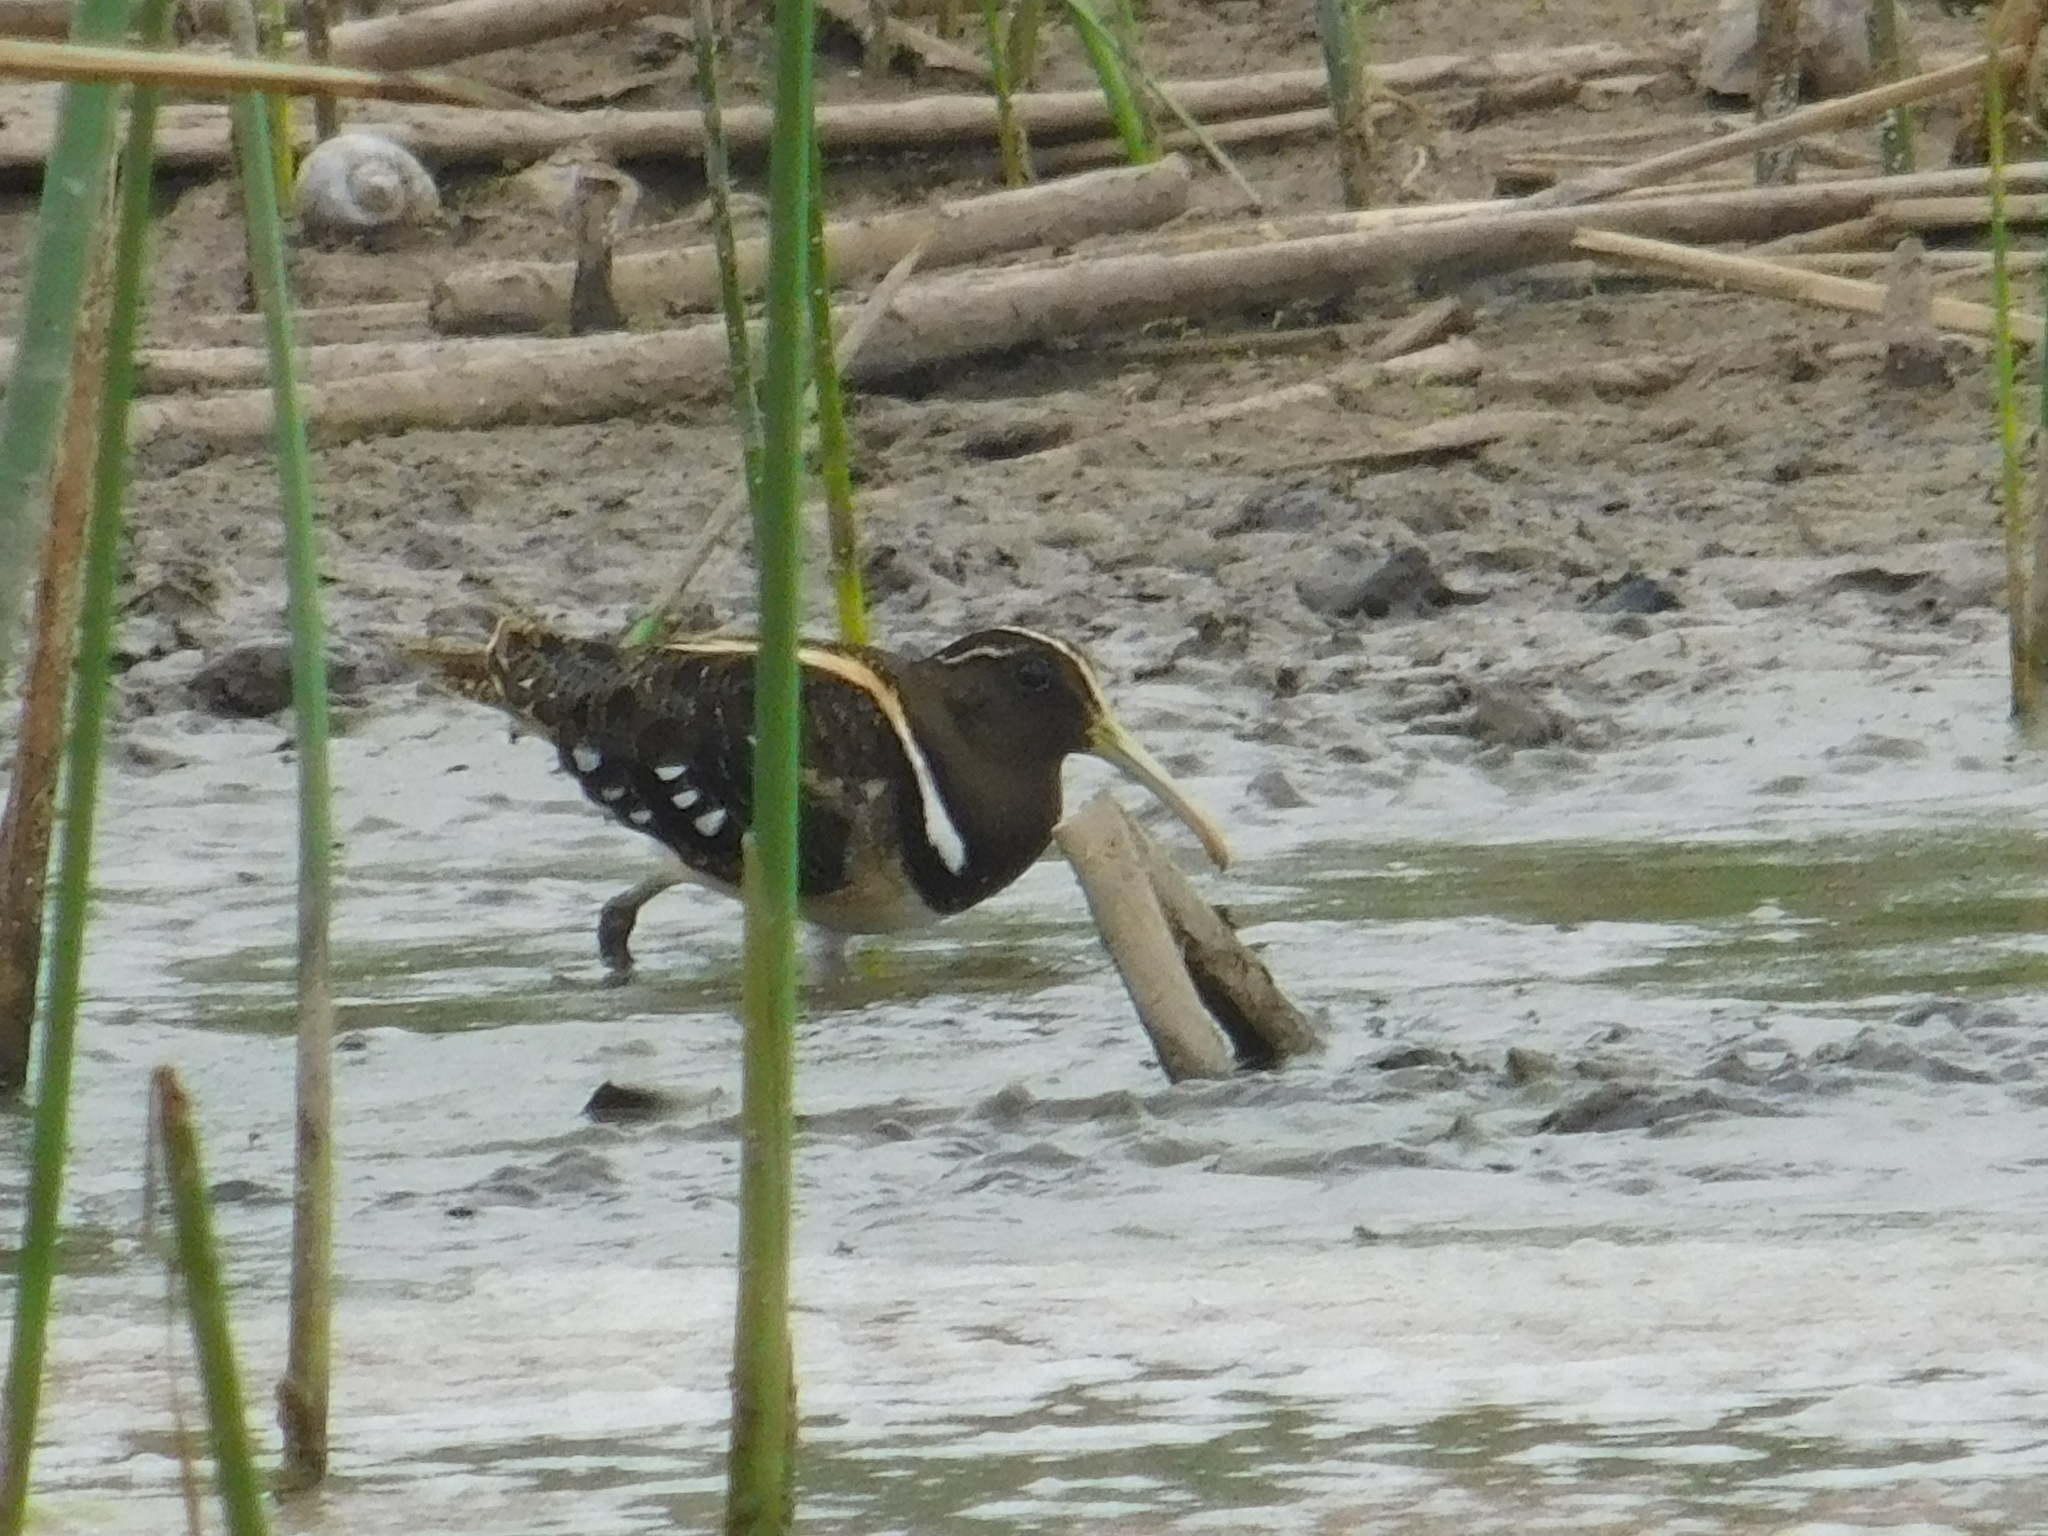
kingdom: Animalia
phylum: Chordata
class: Aves
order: Charadriiformes
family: Rostratulidae
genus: Nycticryphes
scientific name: Nycticryphes semicollaris
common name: South american painted-snipe
